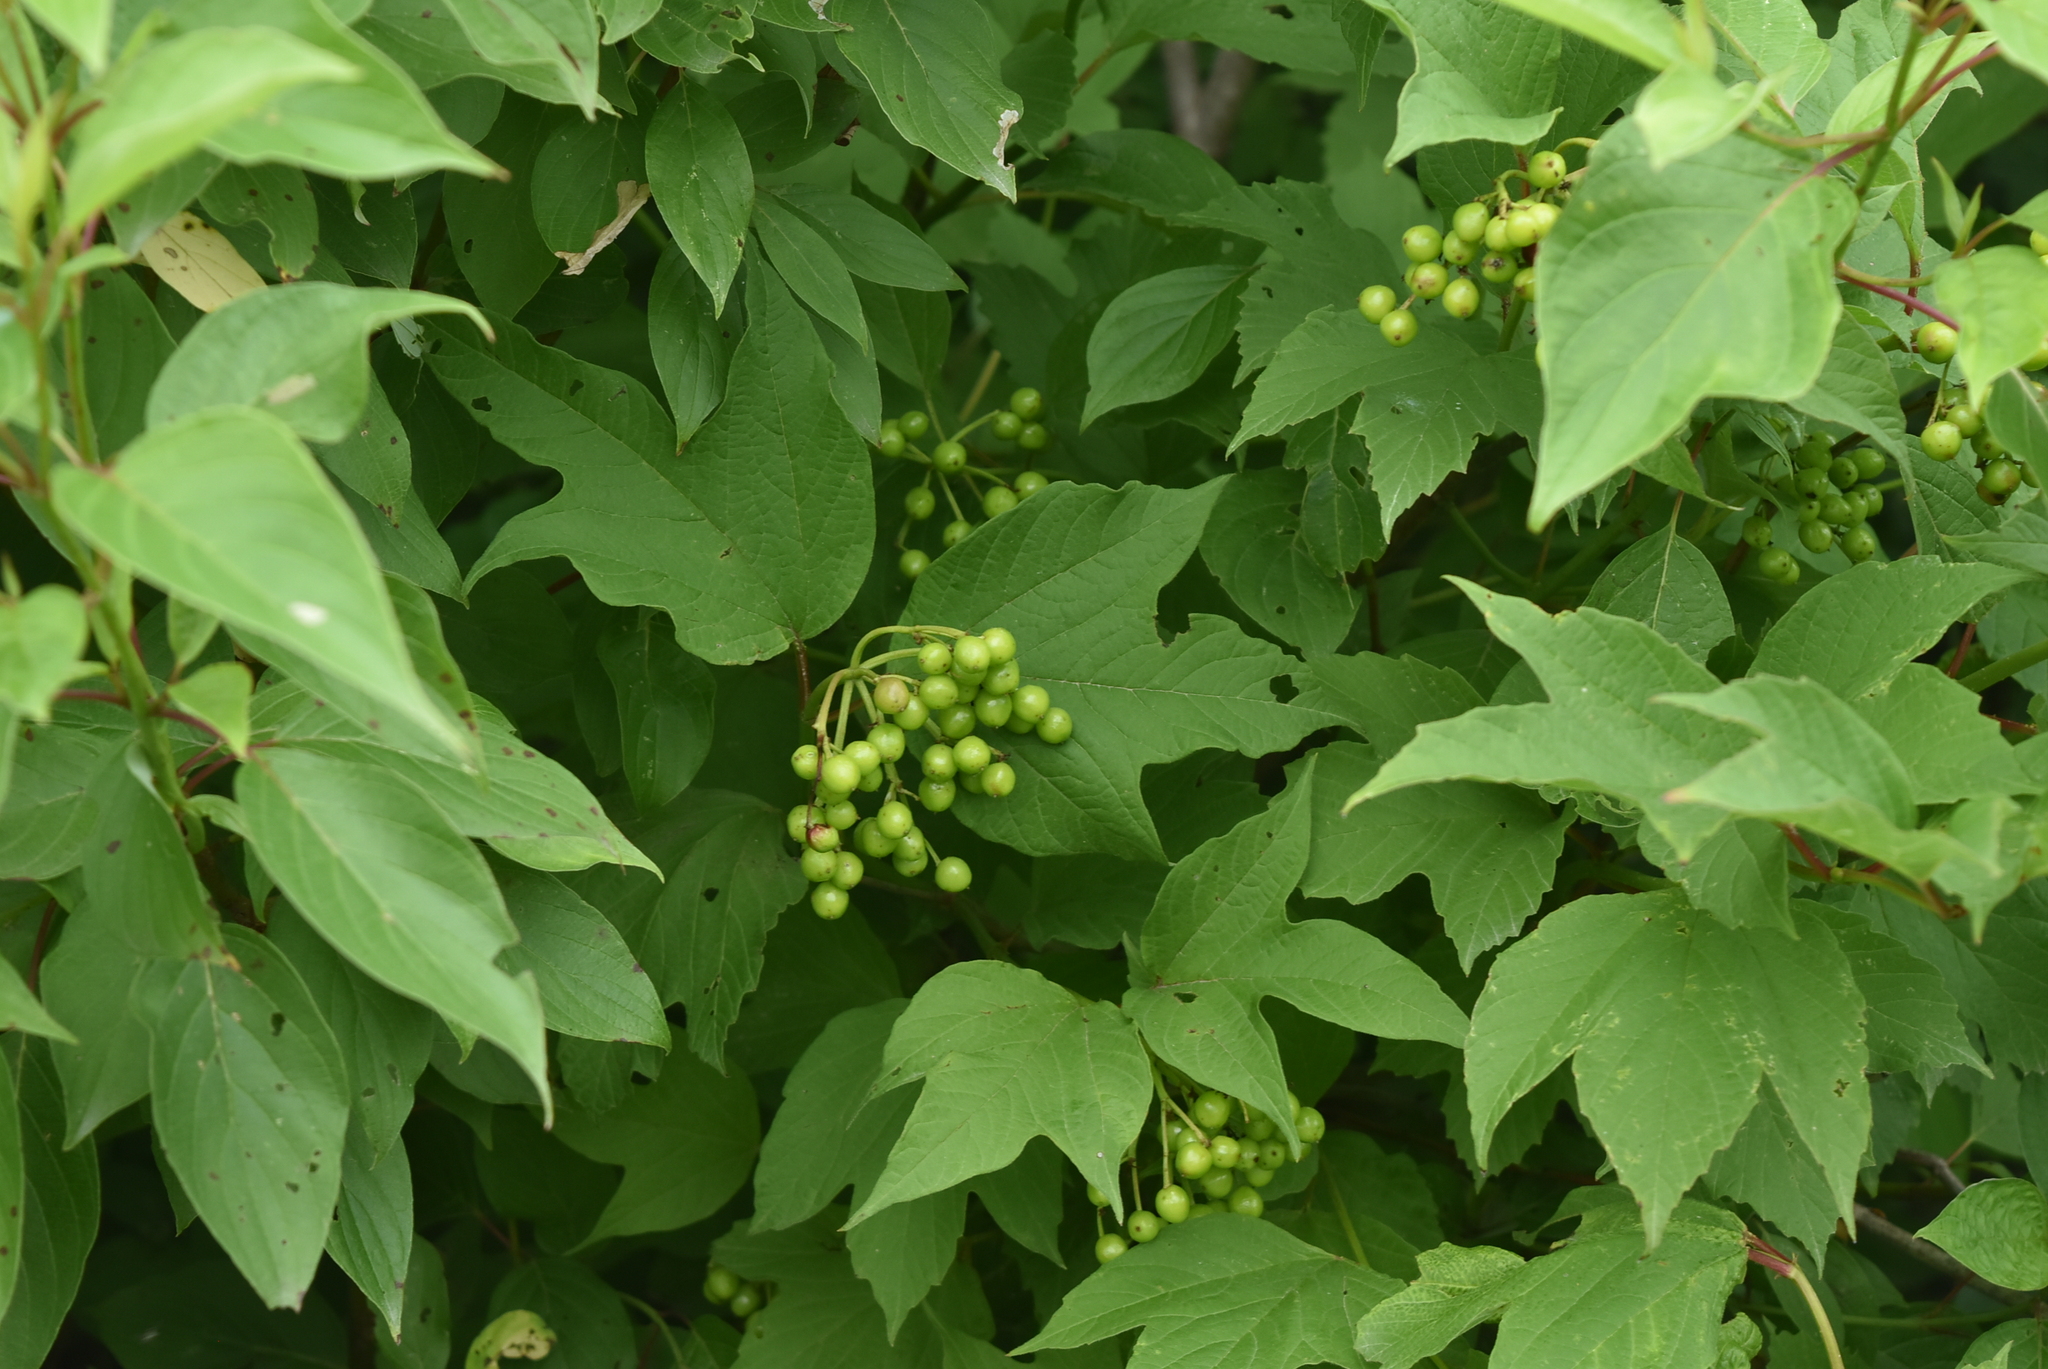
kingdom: Plantae
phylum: Tracheophyta
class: Magnoliopsida
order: Dipsacales
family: Viburnaceae
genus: Viburnum
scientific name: Viburnum opulus
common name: Guelder-rose
